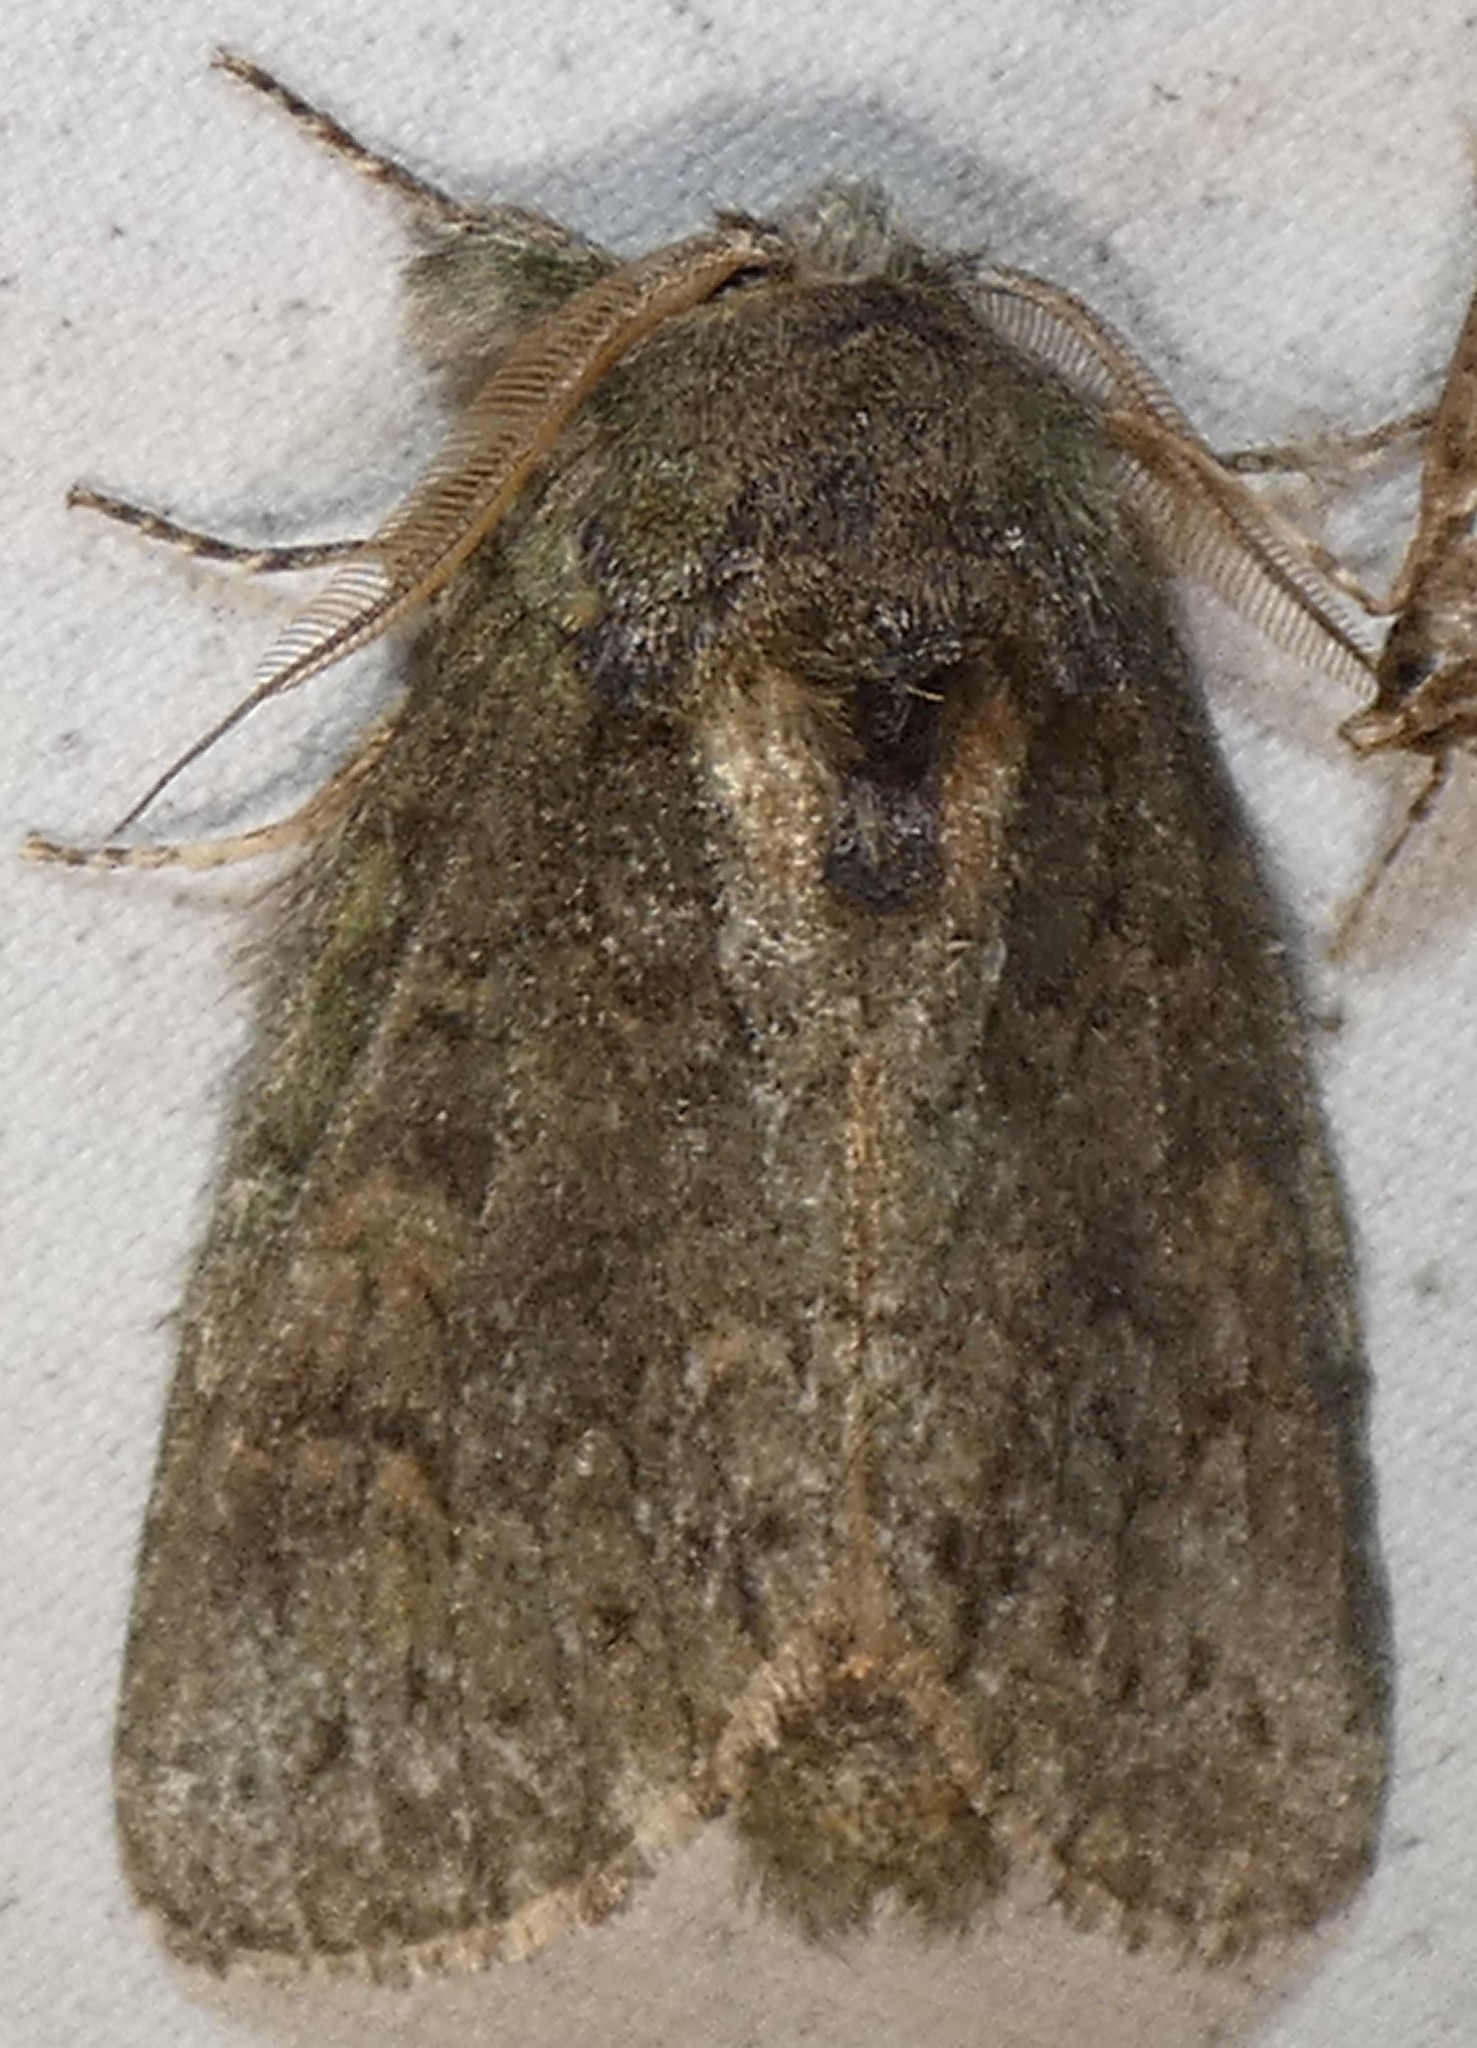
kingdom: Animalia
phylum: Arthropoda
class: Insecta
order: Lepidoptera
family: Notodontidae
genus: Disphragis
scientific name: Disphragis Cecrita guttivitta
